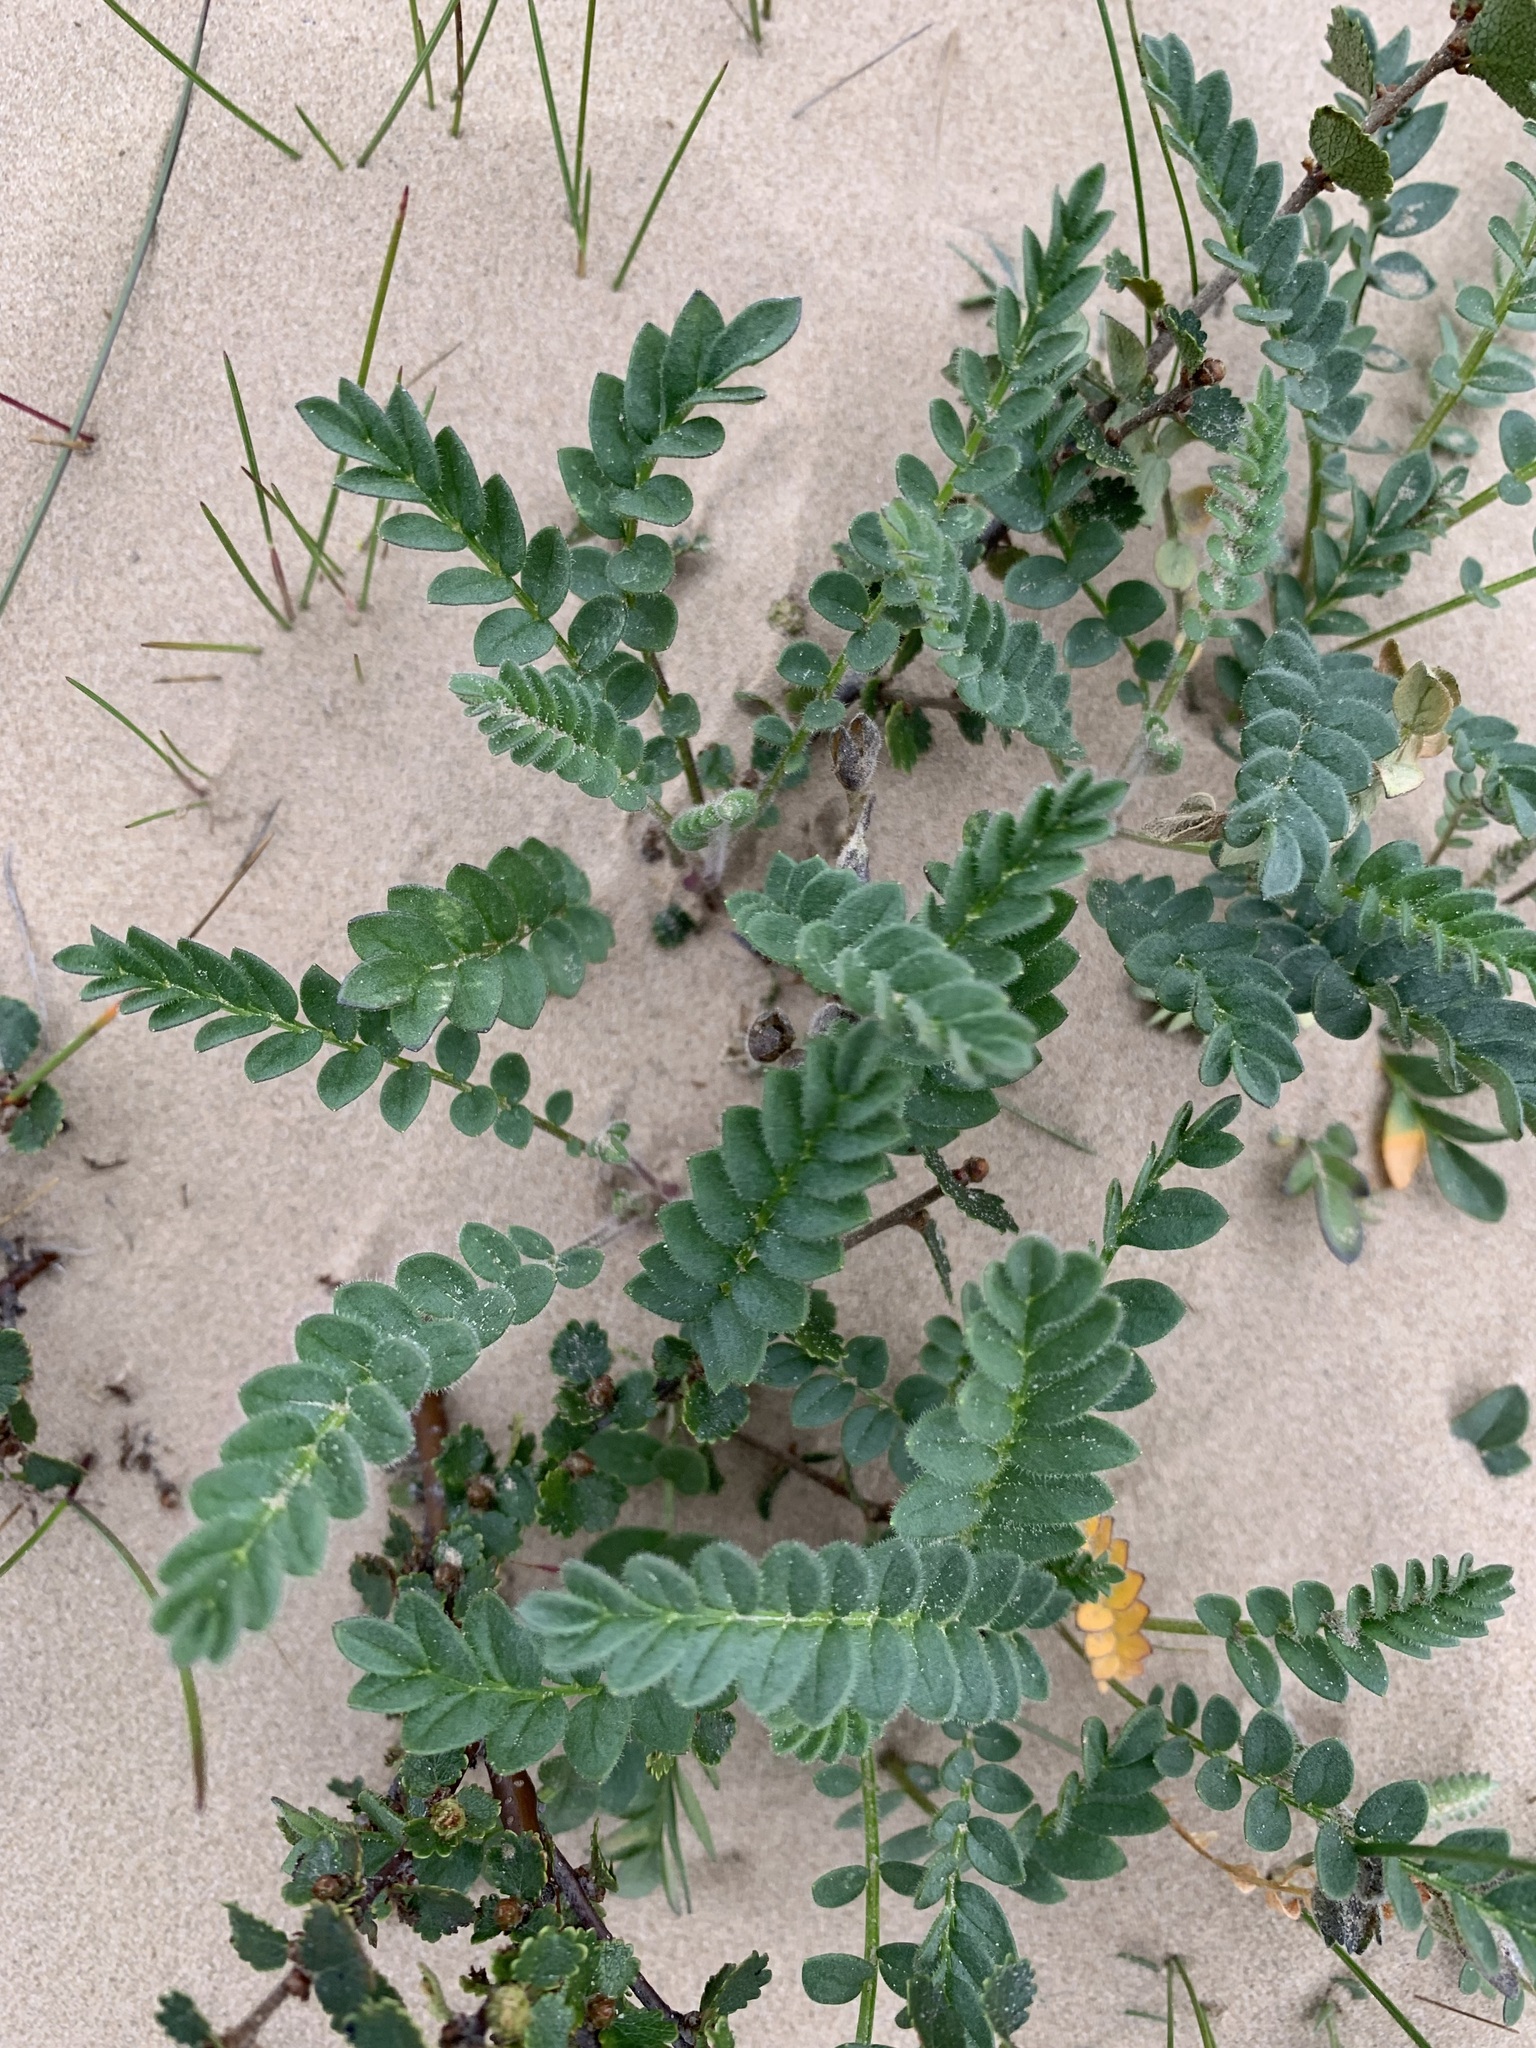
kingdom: Plantae
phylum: Tracheophyta
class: Magnoliopsida
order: Ericales
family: Polemoniaceae
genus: Polemonium
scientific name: Polemonium boreale
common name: Boreal jacob's-ladder
